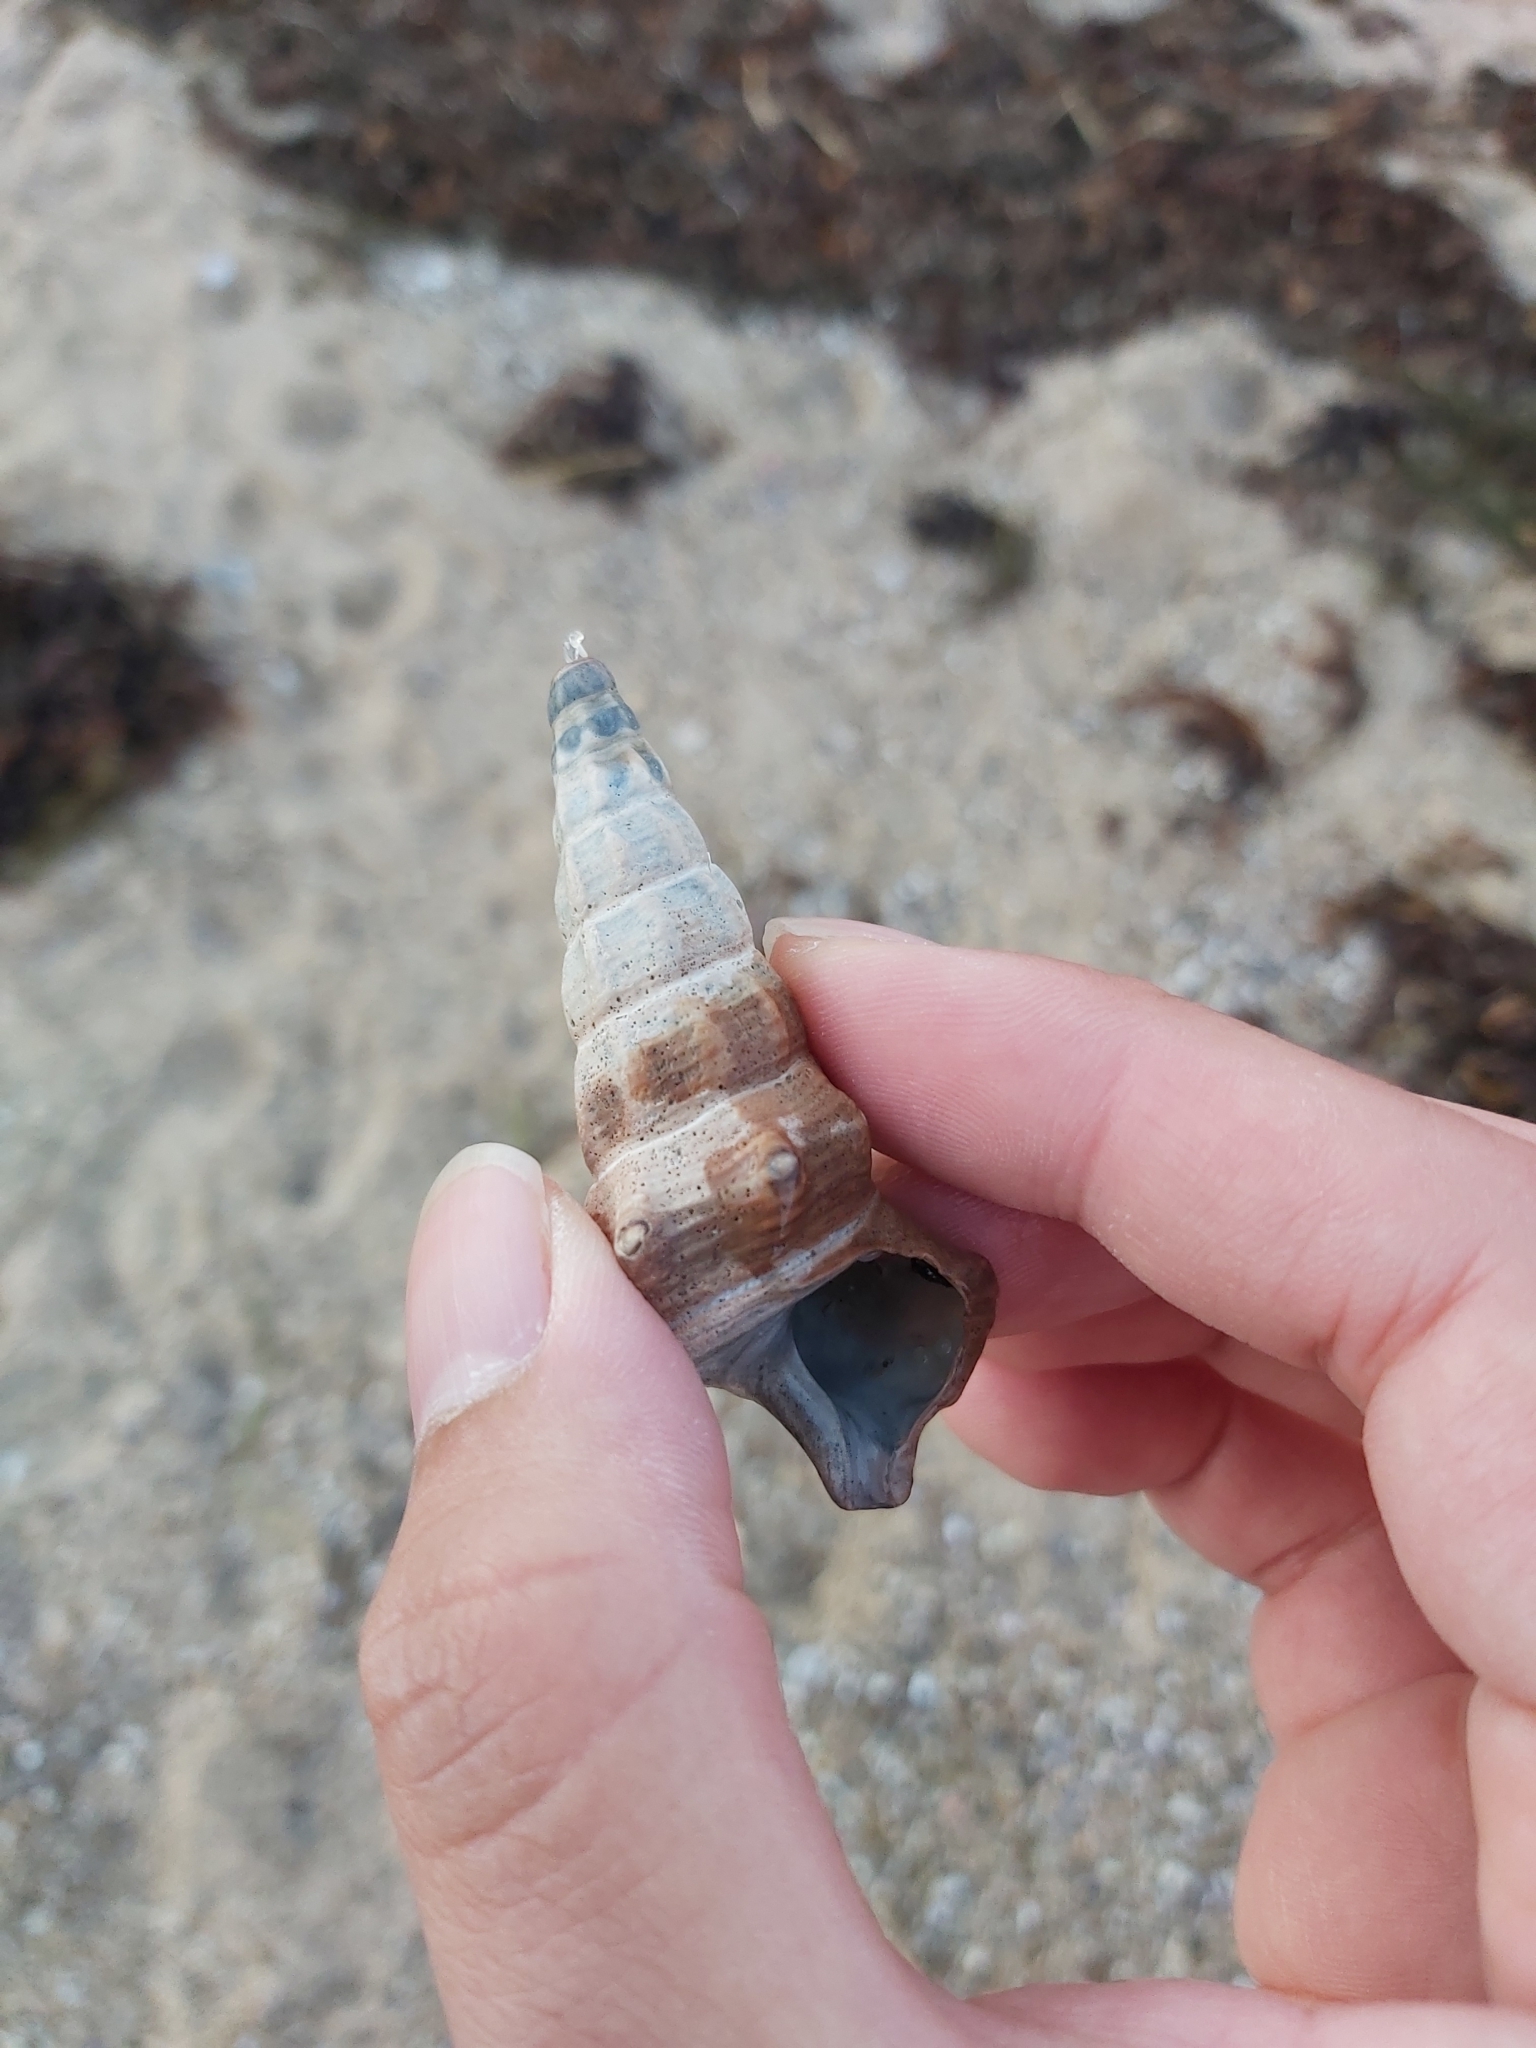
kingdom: Animalia
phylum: Mollusca
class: Gastropoda
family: Batillariidae
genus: Pyrazus
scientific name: Pyrazus ebeninus
